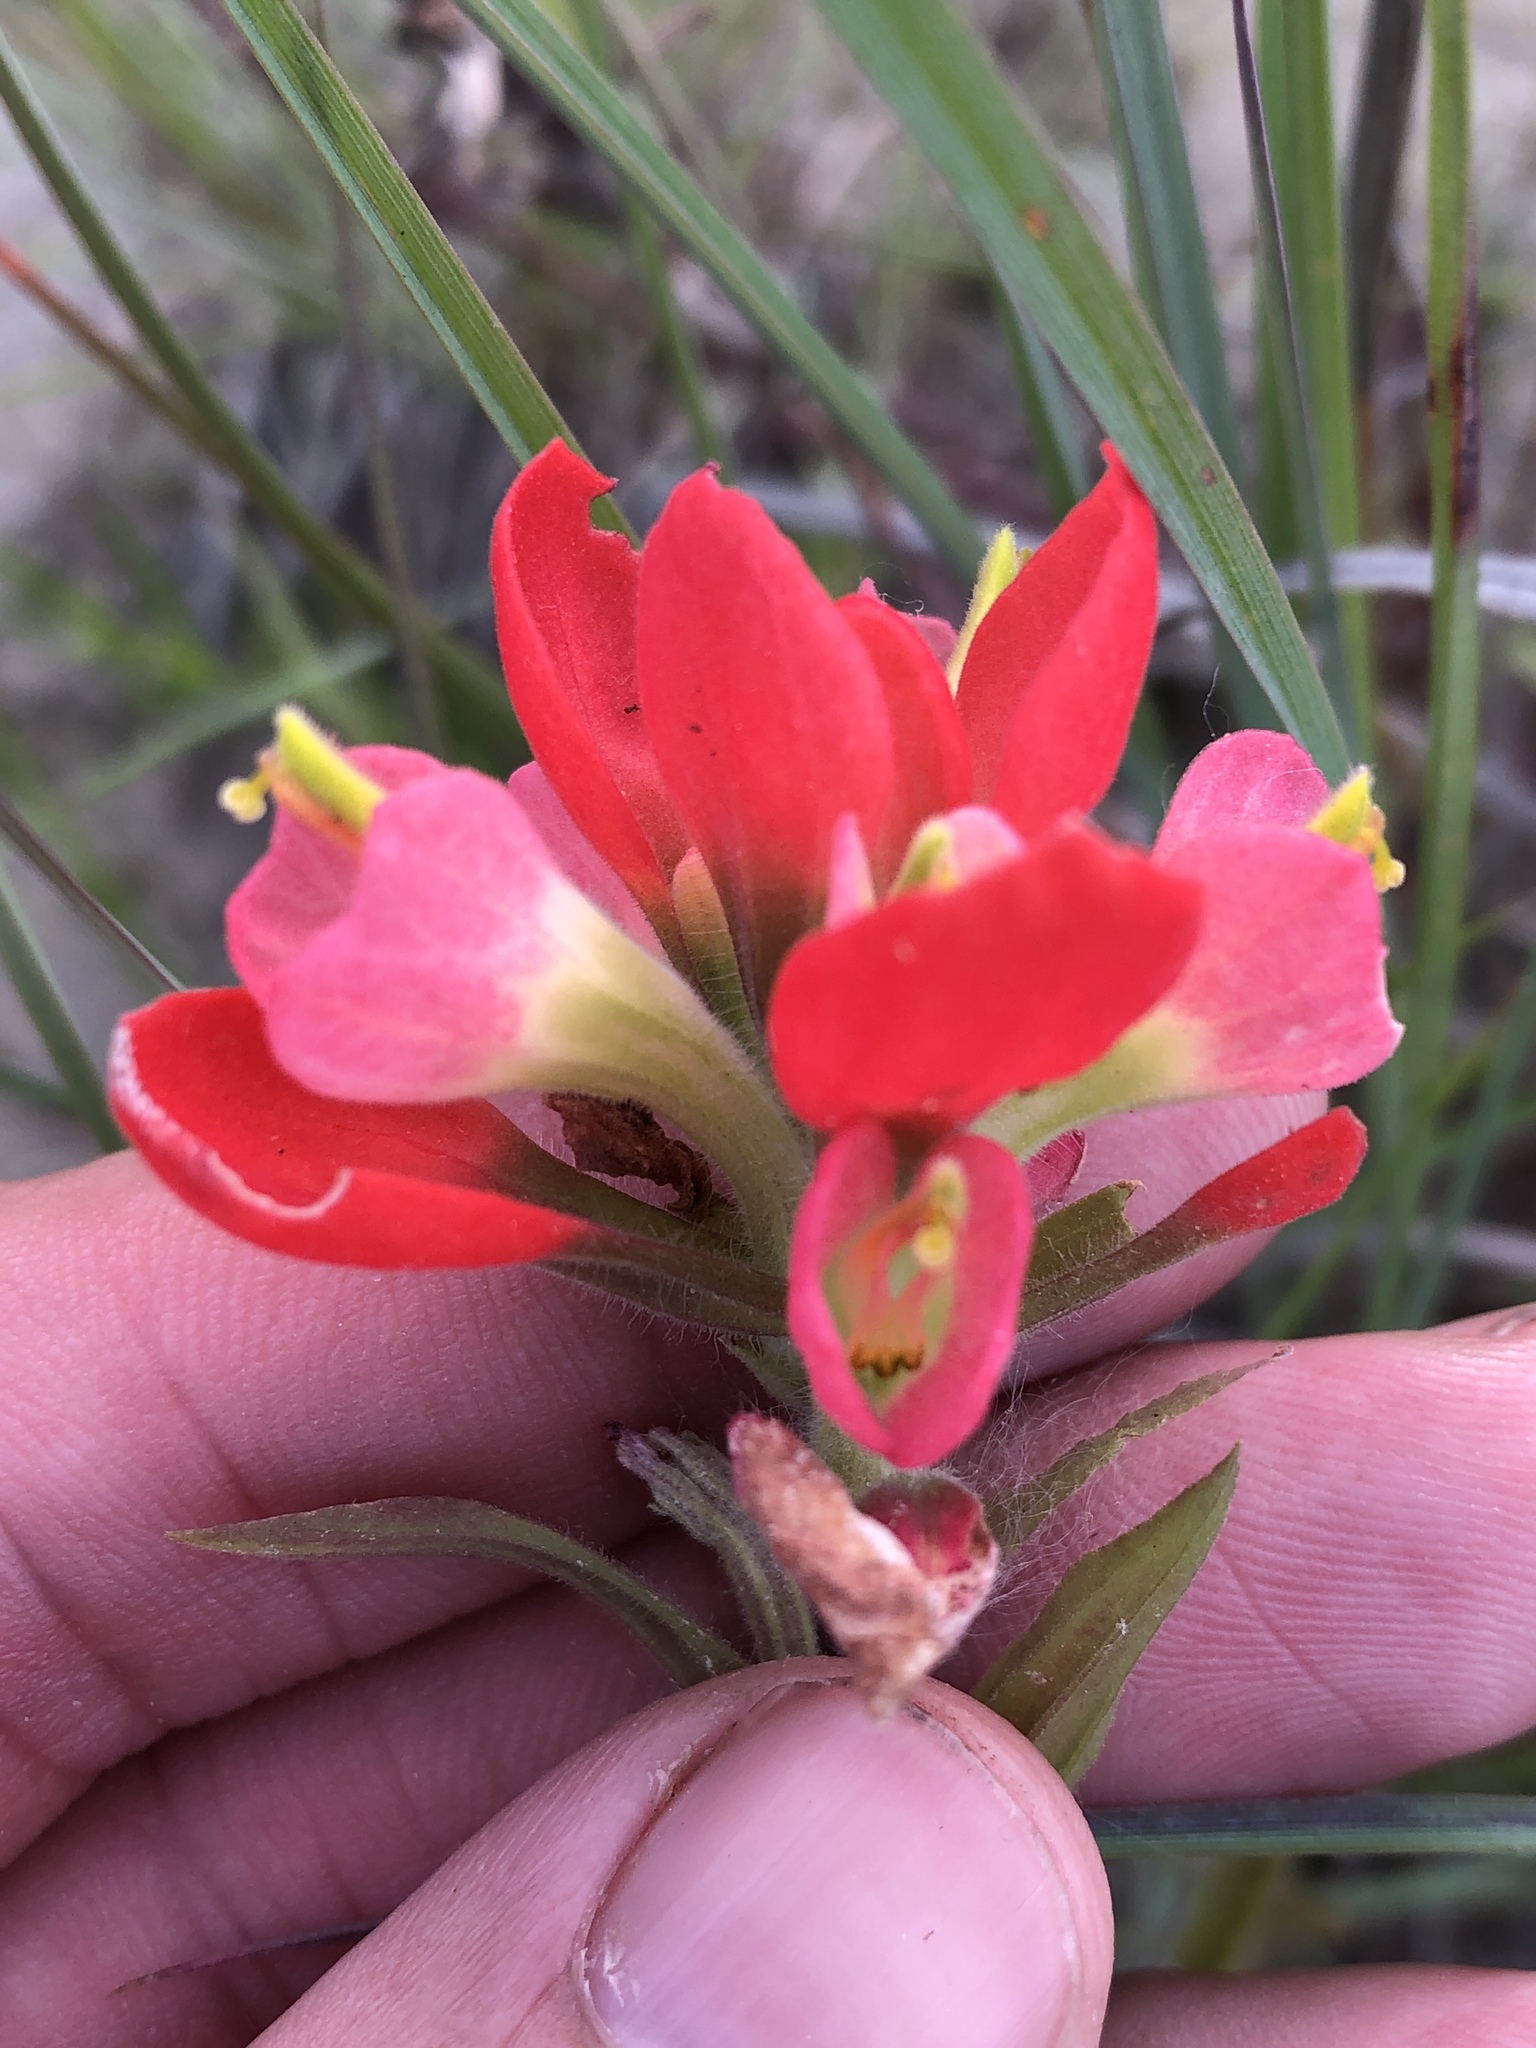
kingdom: Plantae
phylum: Tracheophyta
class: Magnoliopsida
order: Lamiales
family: Orobanchaceae
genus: Castilleja
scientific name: Castilleja indivisa
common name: Texas paintbrush
